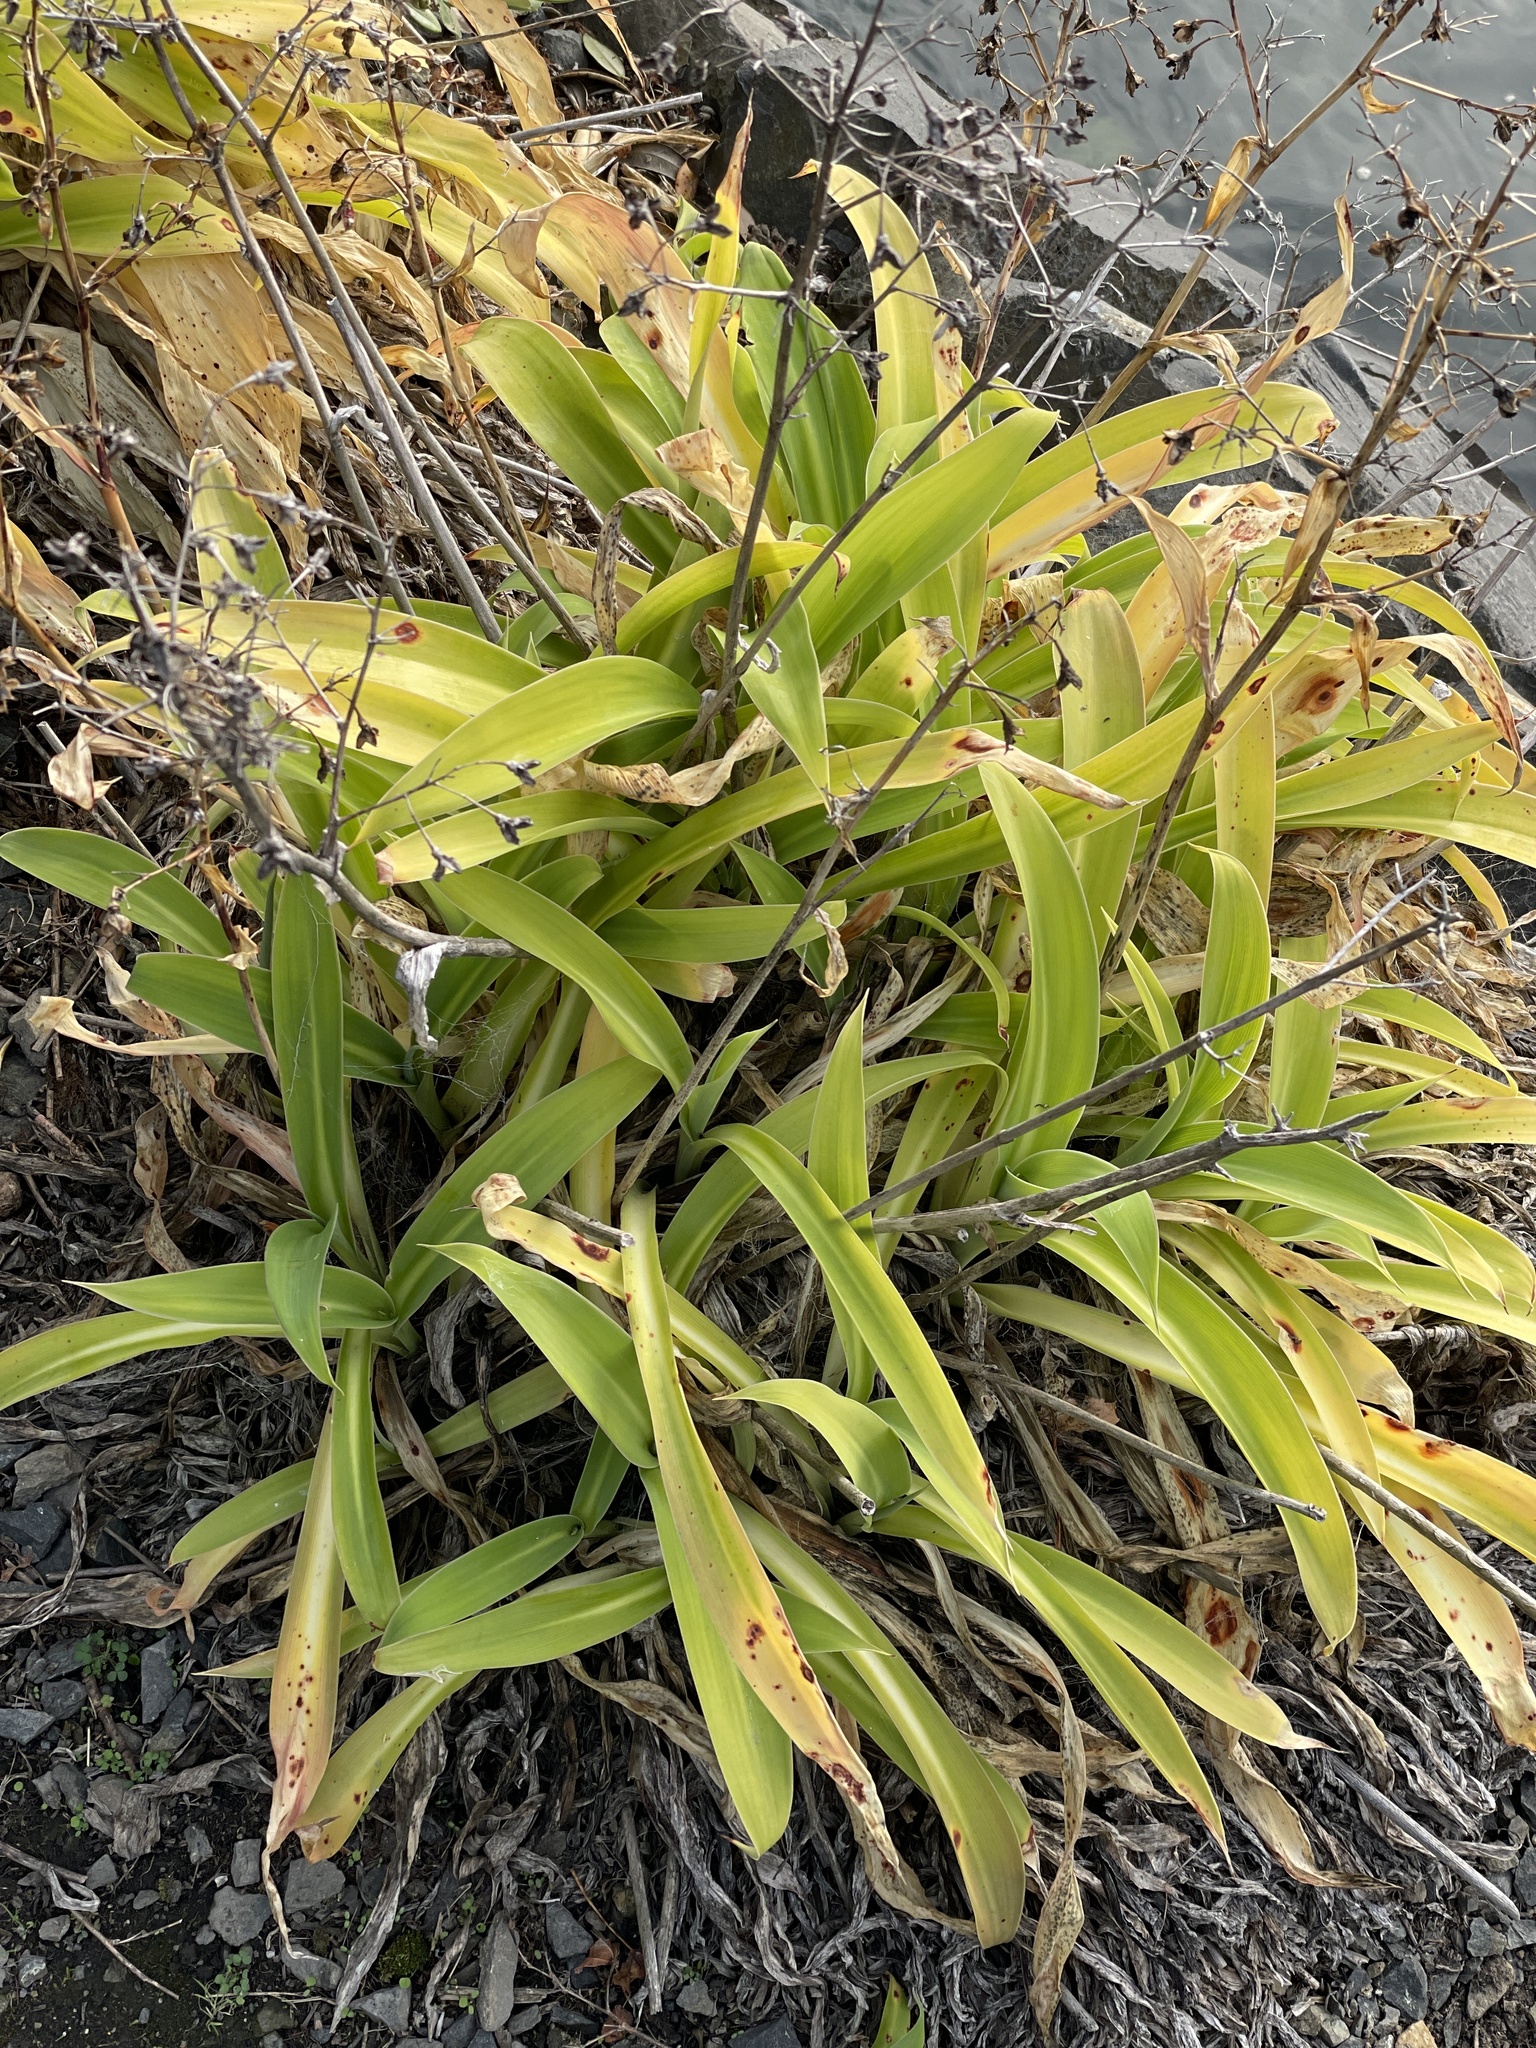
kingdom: Plantae
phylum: Tracheophyta
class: Liliopsida
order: Asparagales
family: Asparagaceae
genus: Arthropodium
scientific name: Arthropodium cirratum
